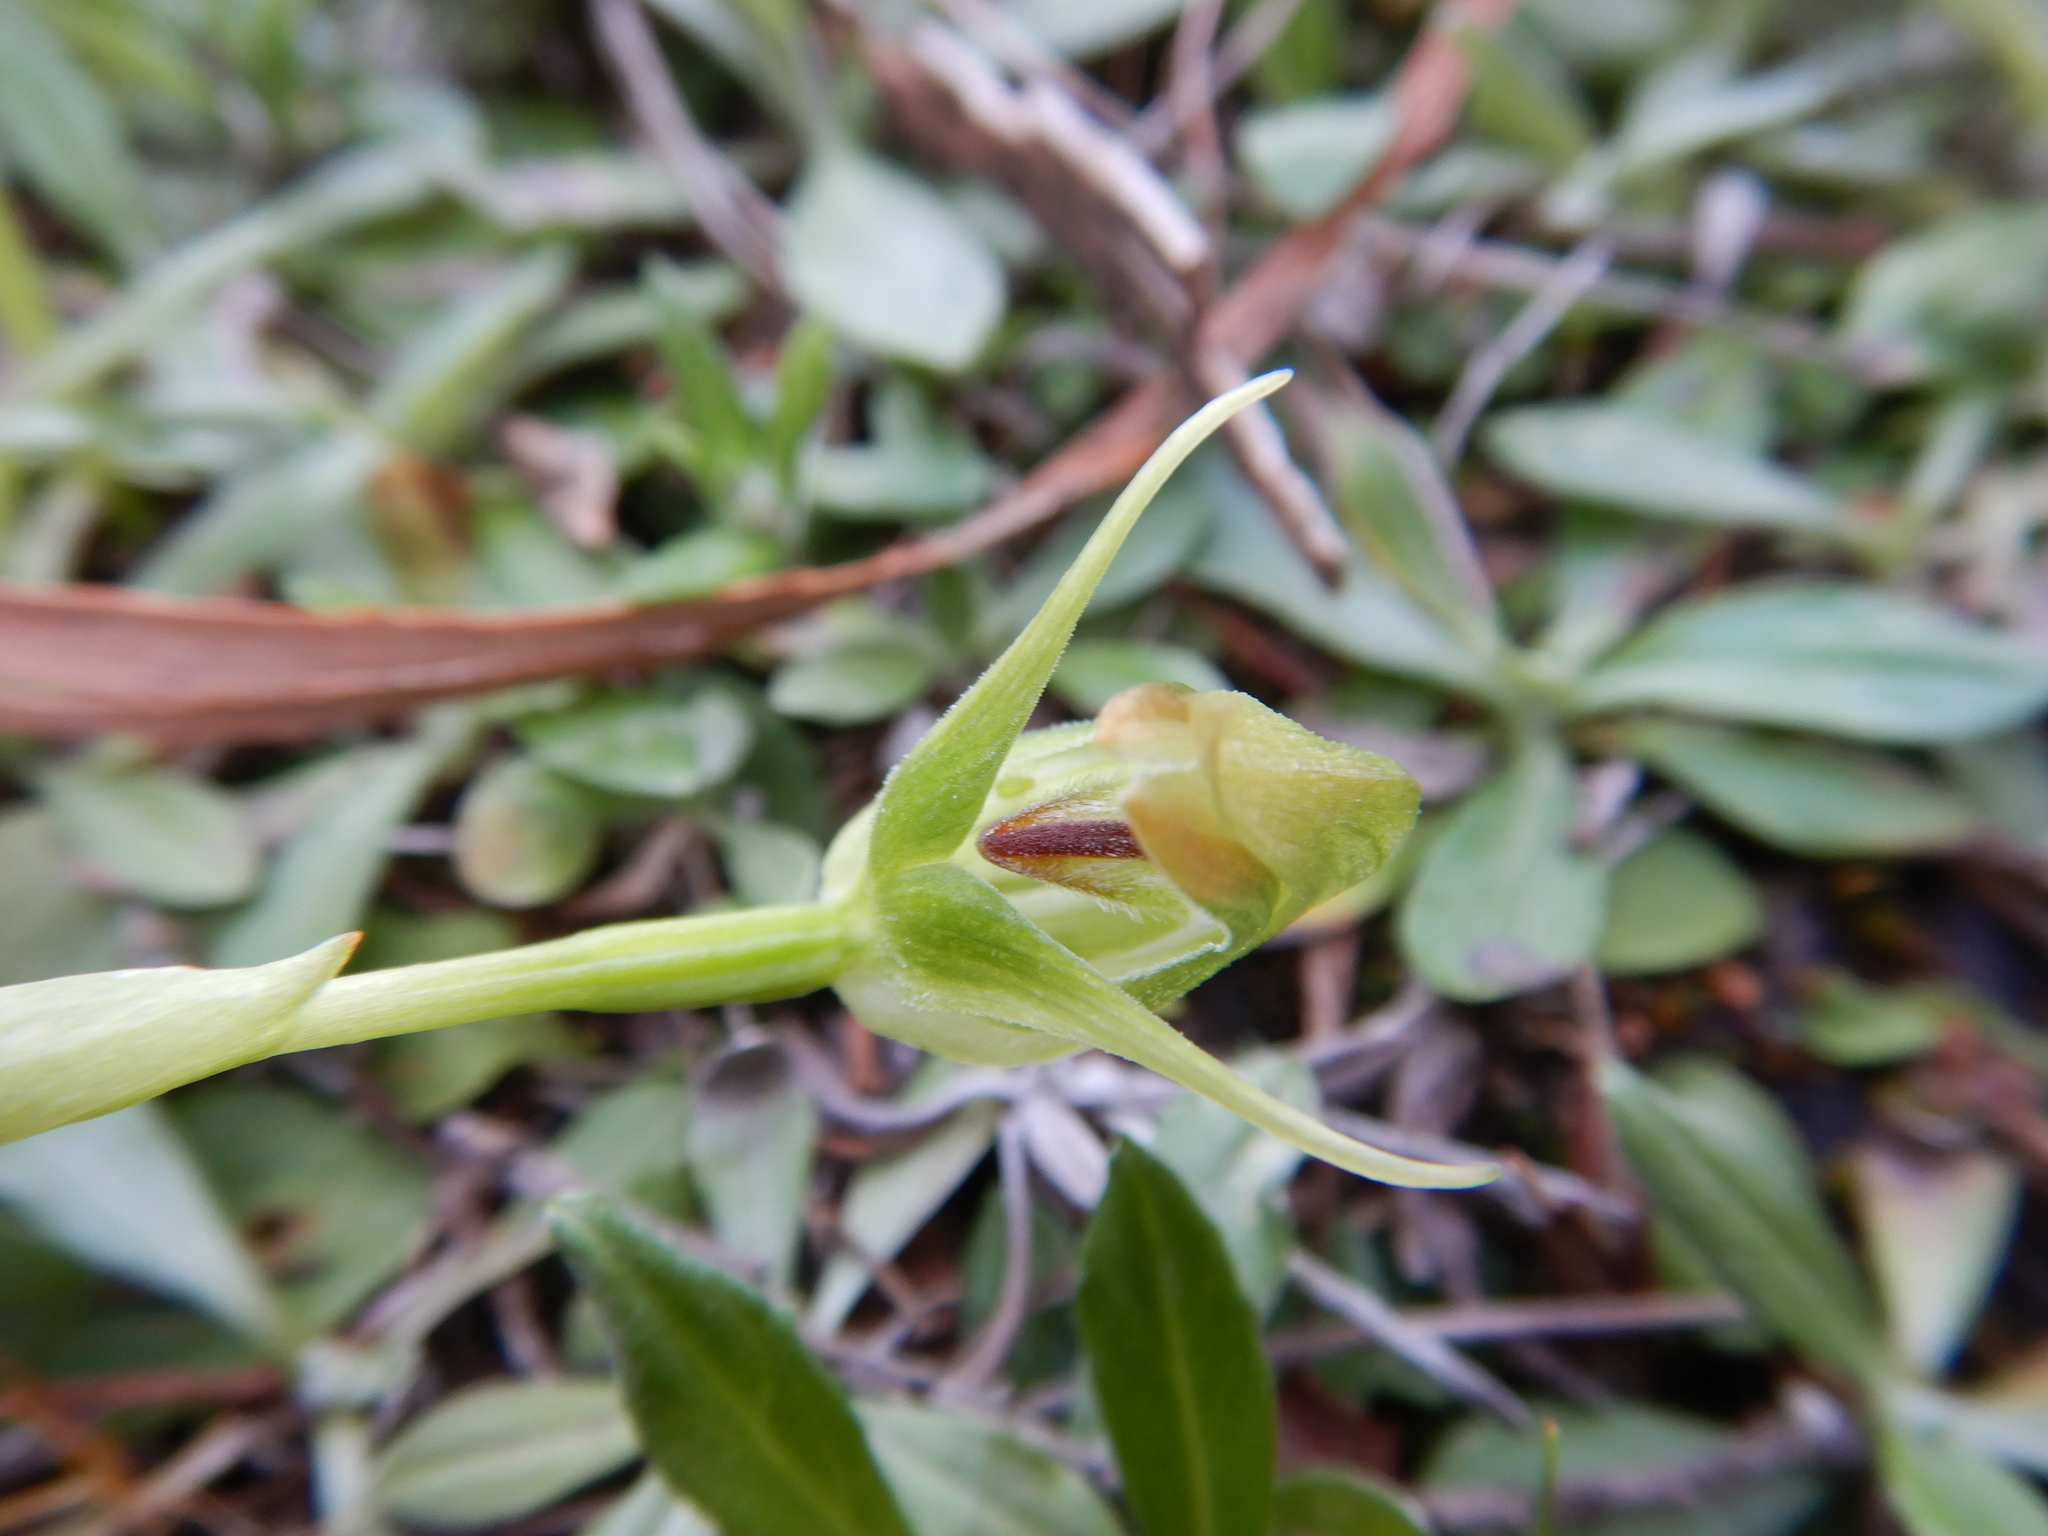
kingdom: Plantae
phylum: Tracheophyta
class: Liliopsida
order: Asparagales
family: Orchidaceae
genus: Pterostylis
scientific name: Pterostylis nutans
